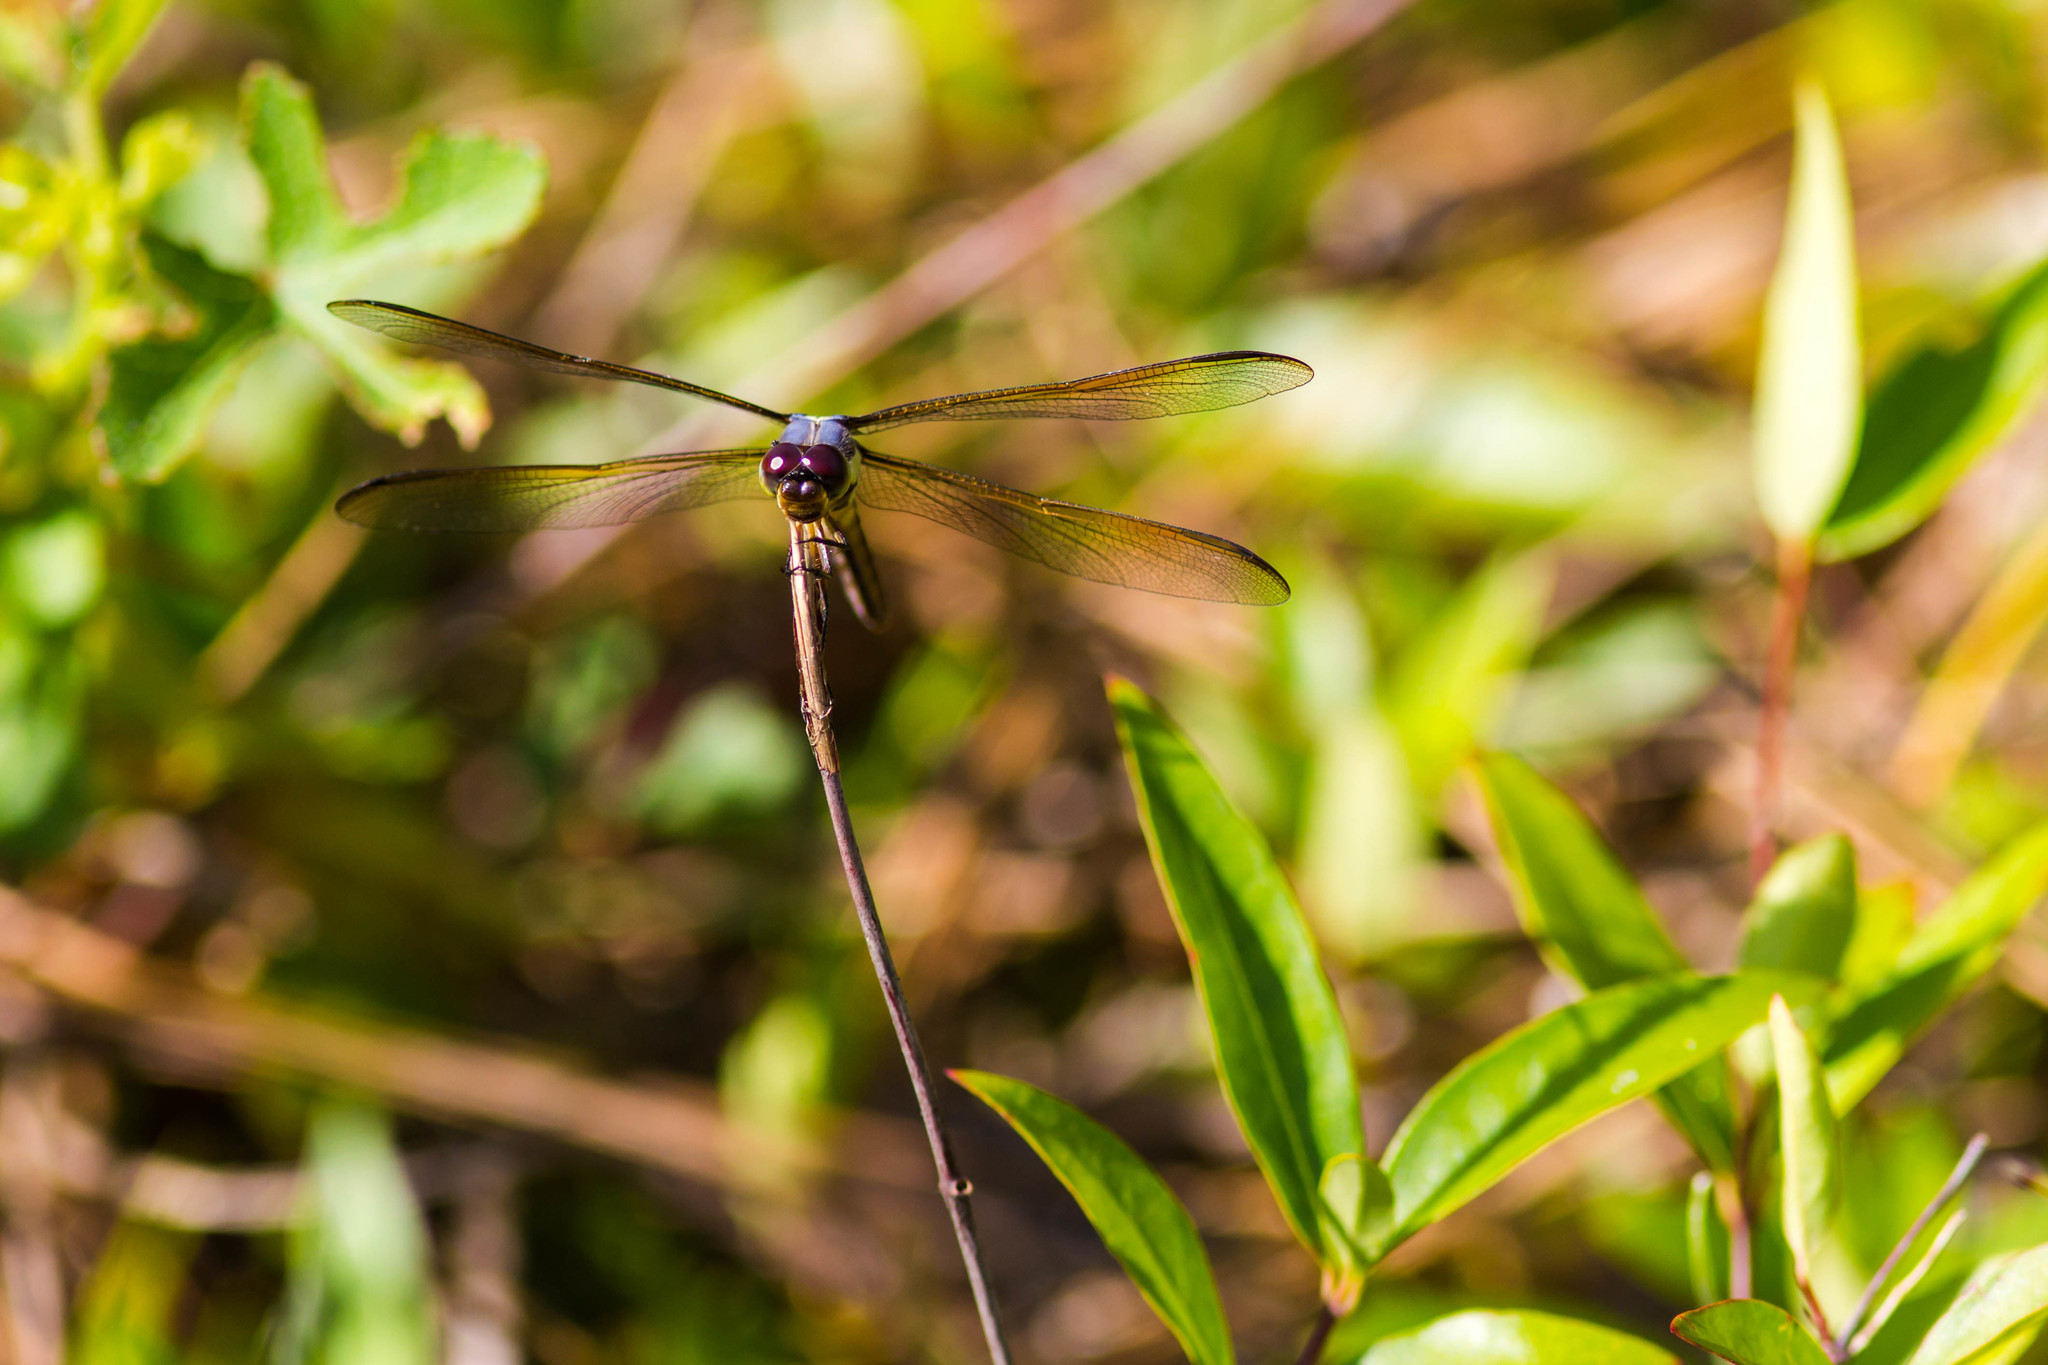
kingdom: Animalia
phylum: Arthropoda
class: Insecta
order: Odonata
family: Libellulidae
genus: Libellula
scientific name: Libellula flavida
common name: Yellow-sided skimmer
